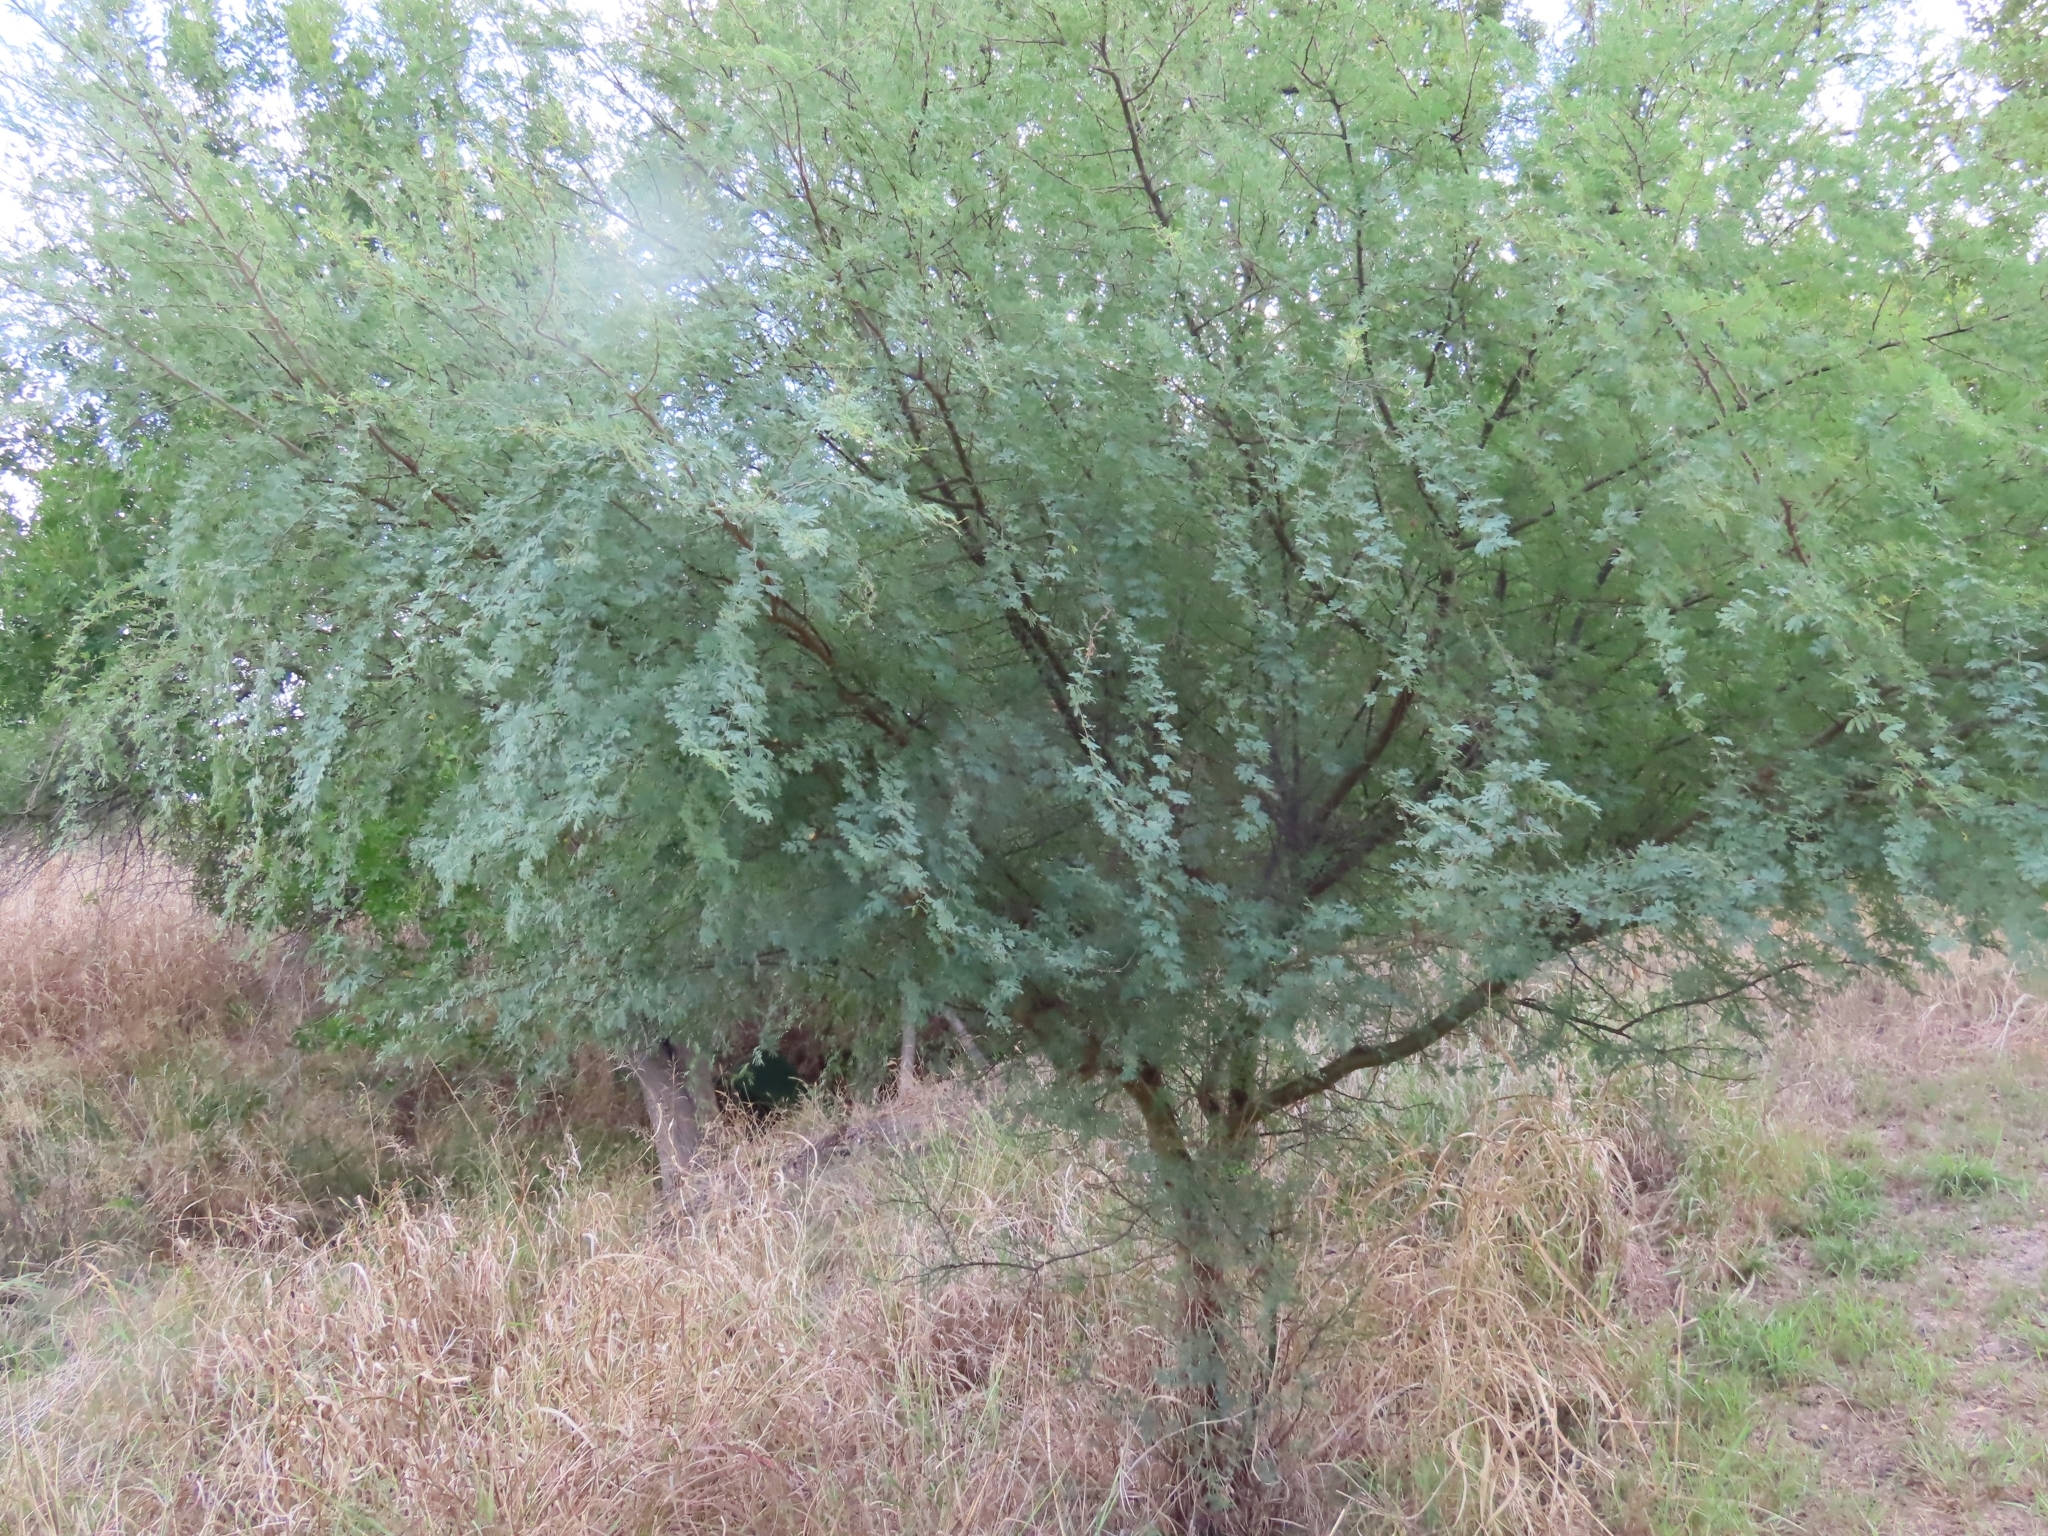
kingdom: Plantae
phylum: Tracheophyta
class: Magnoliopsida
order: Fabales
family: Fabaceae
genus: Vachellia
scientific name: Vachellia farnesiana
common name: Sweet acacia
